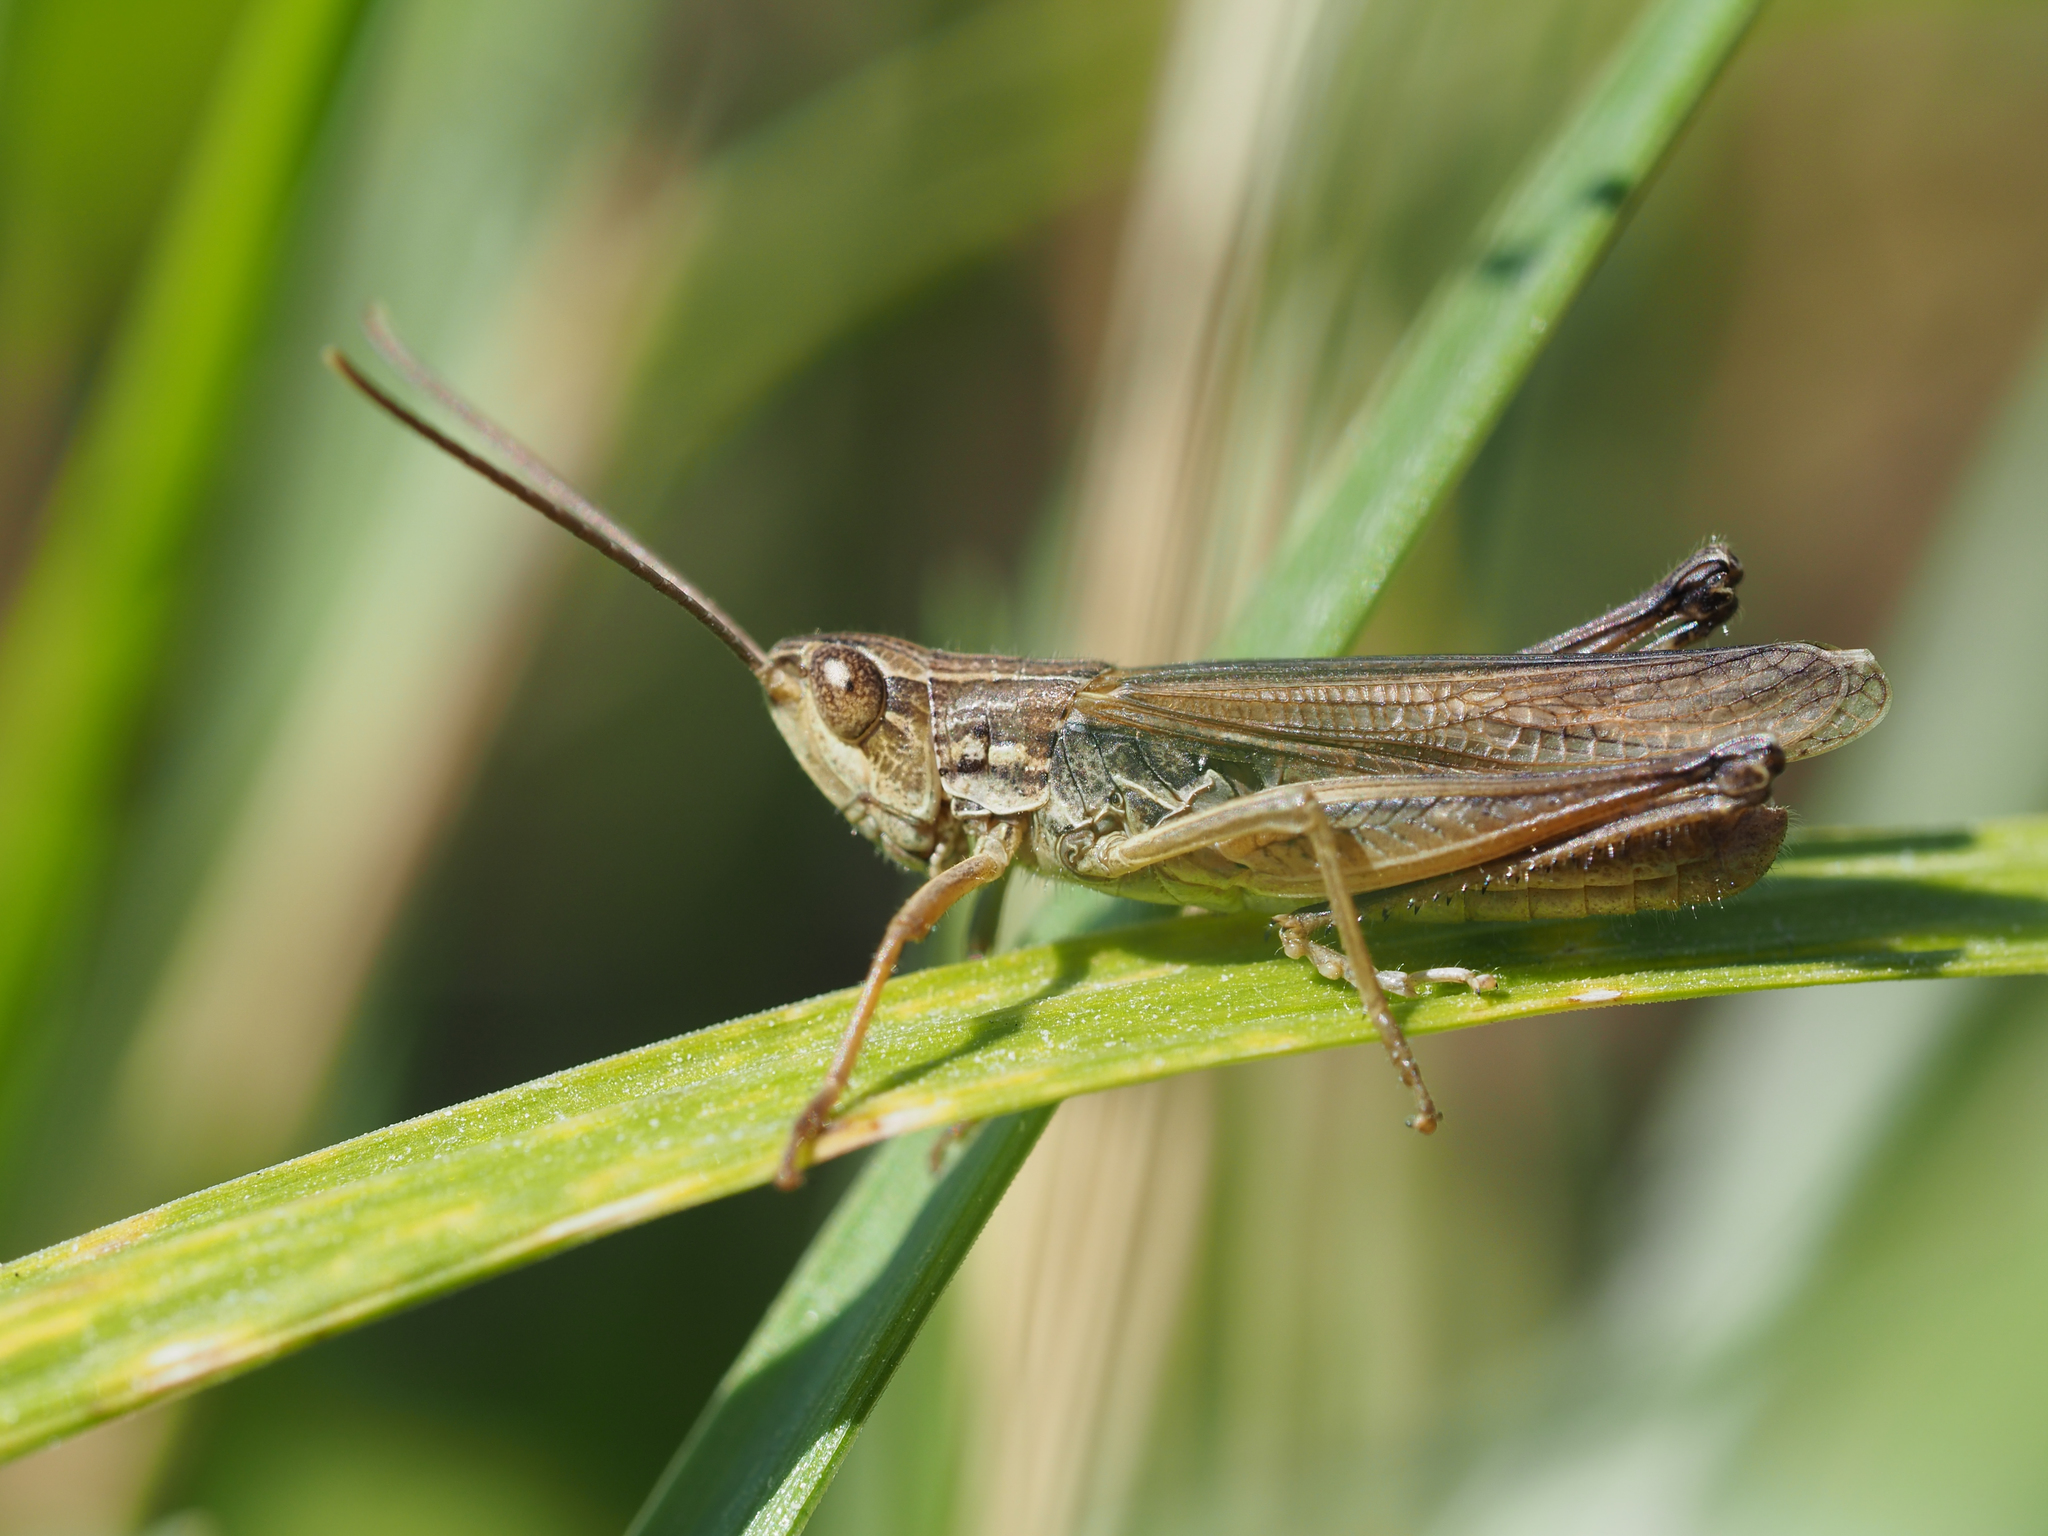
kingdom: Animalia
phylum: Arthropoda
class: Insecta
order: Orthoptera
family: Acrididae
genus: Chorthippus
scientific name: Chorthippus oschei
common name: Carpathian dancing grasshopper
